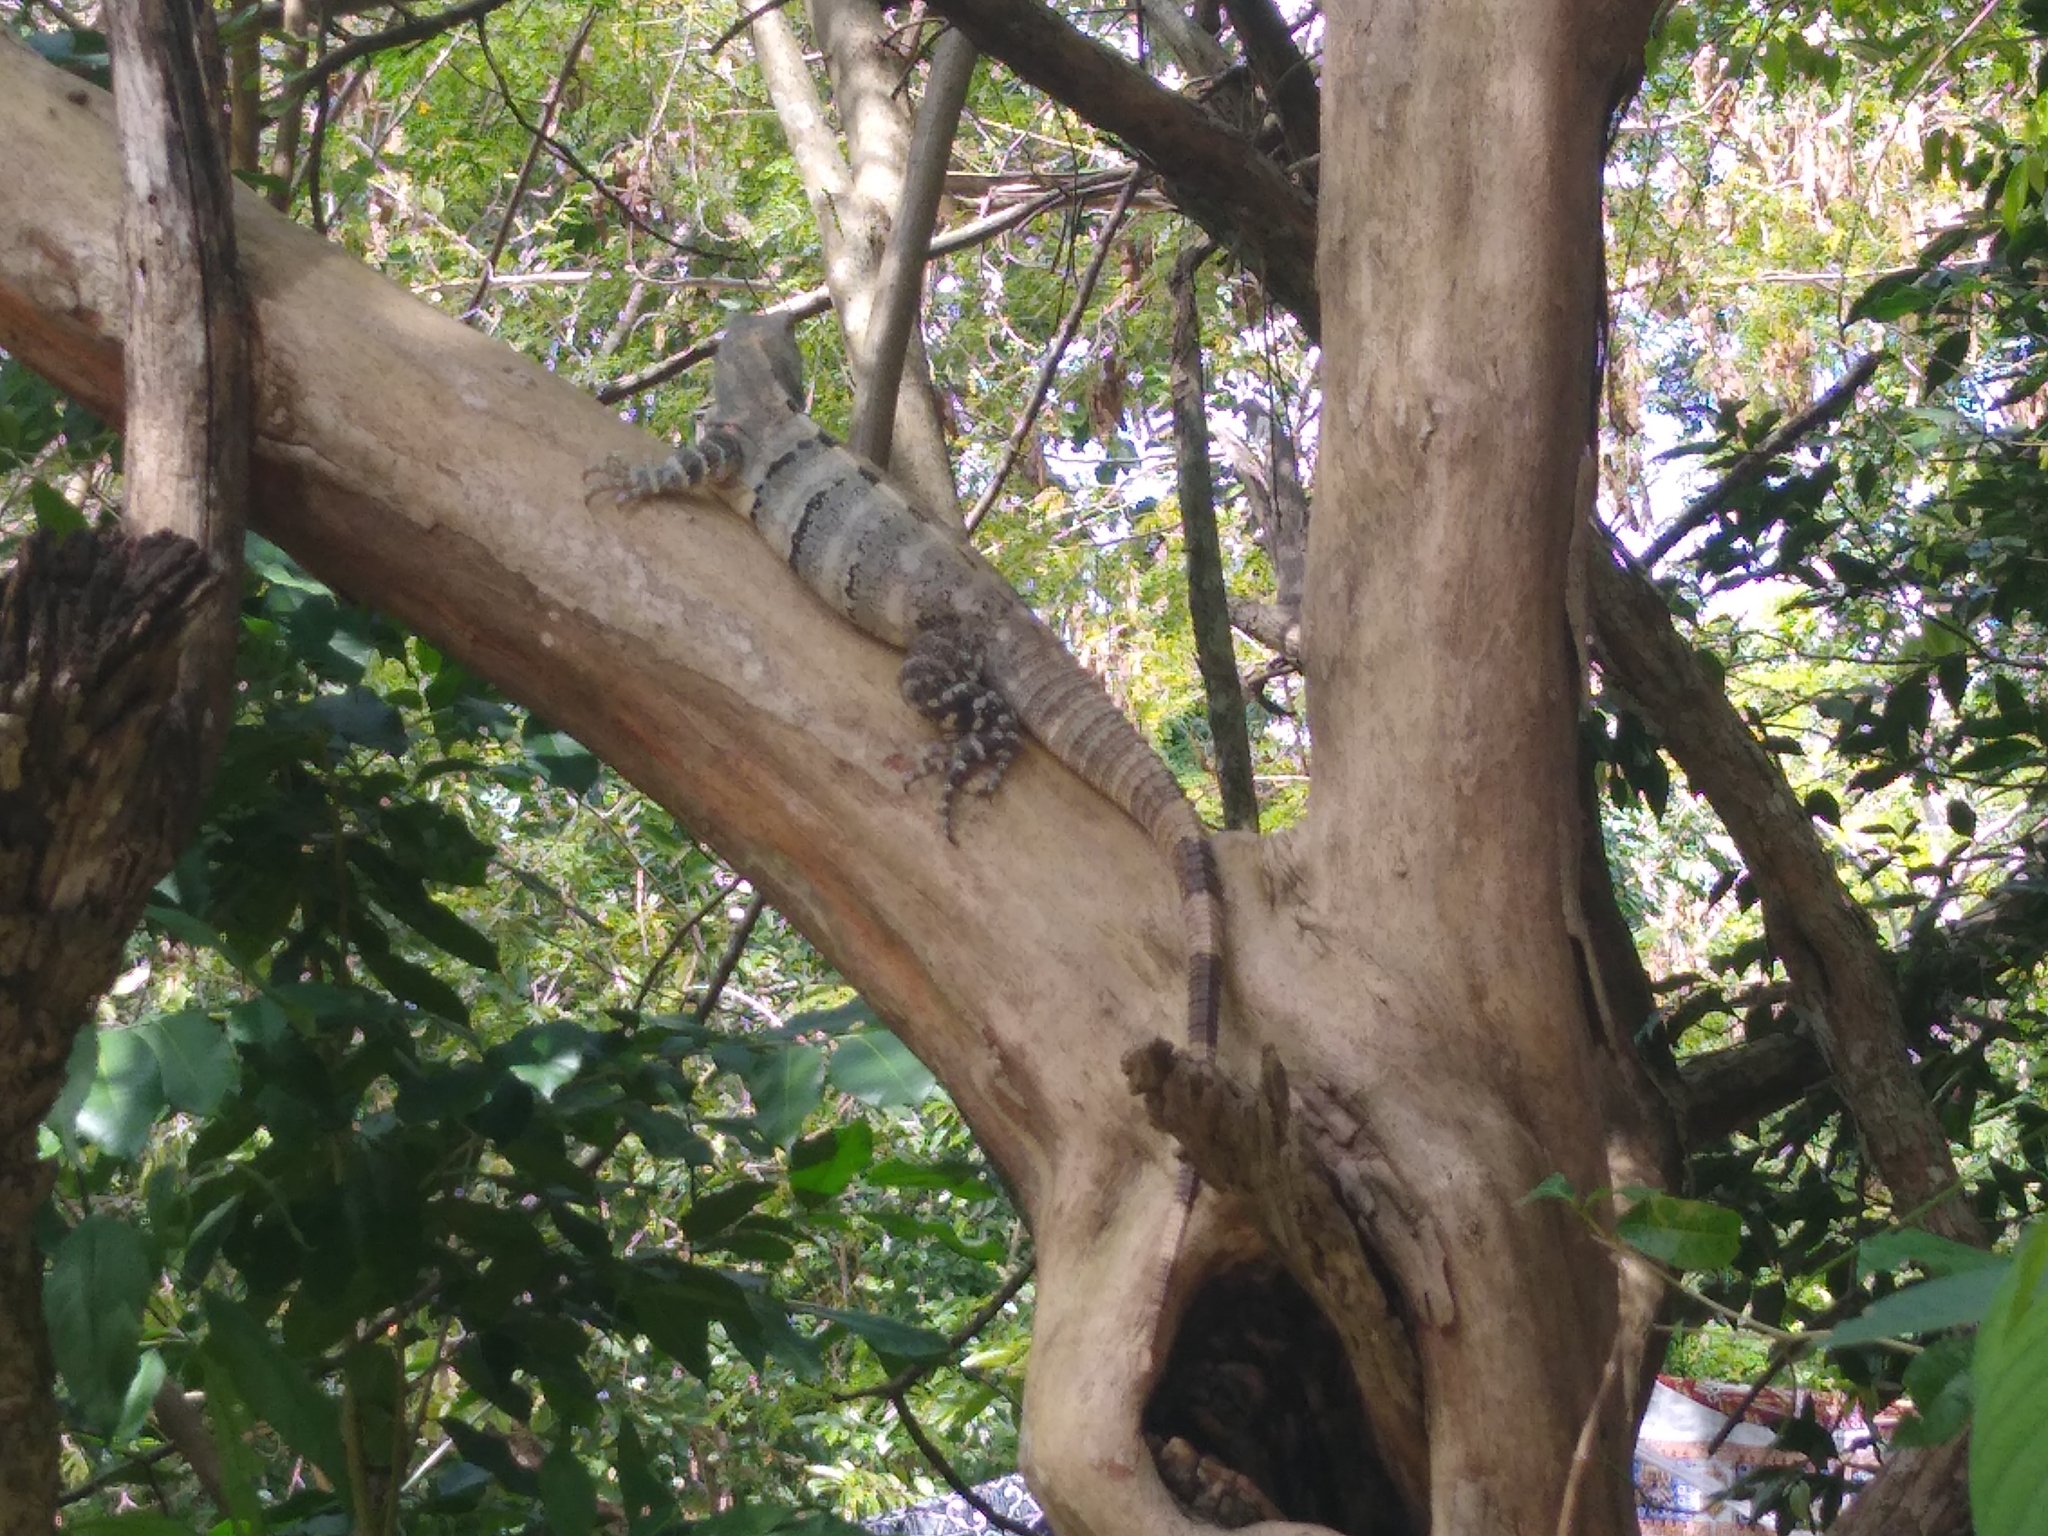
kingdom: Animalia
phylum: Chordata
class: Squamata
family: Iguanidae
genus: Ctenosaura
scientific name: Ctenosaura similis
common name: Black spiny-tailed iguana
